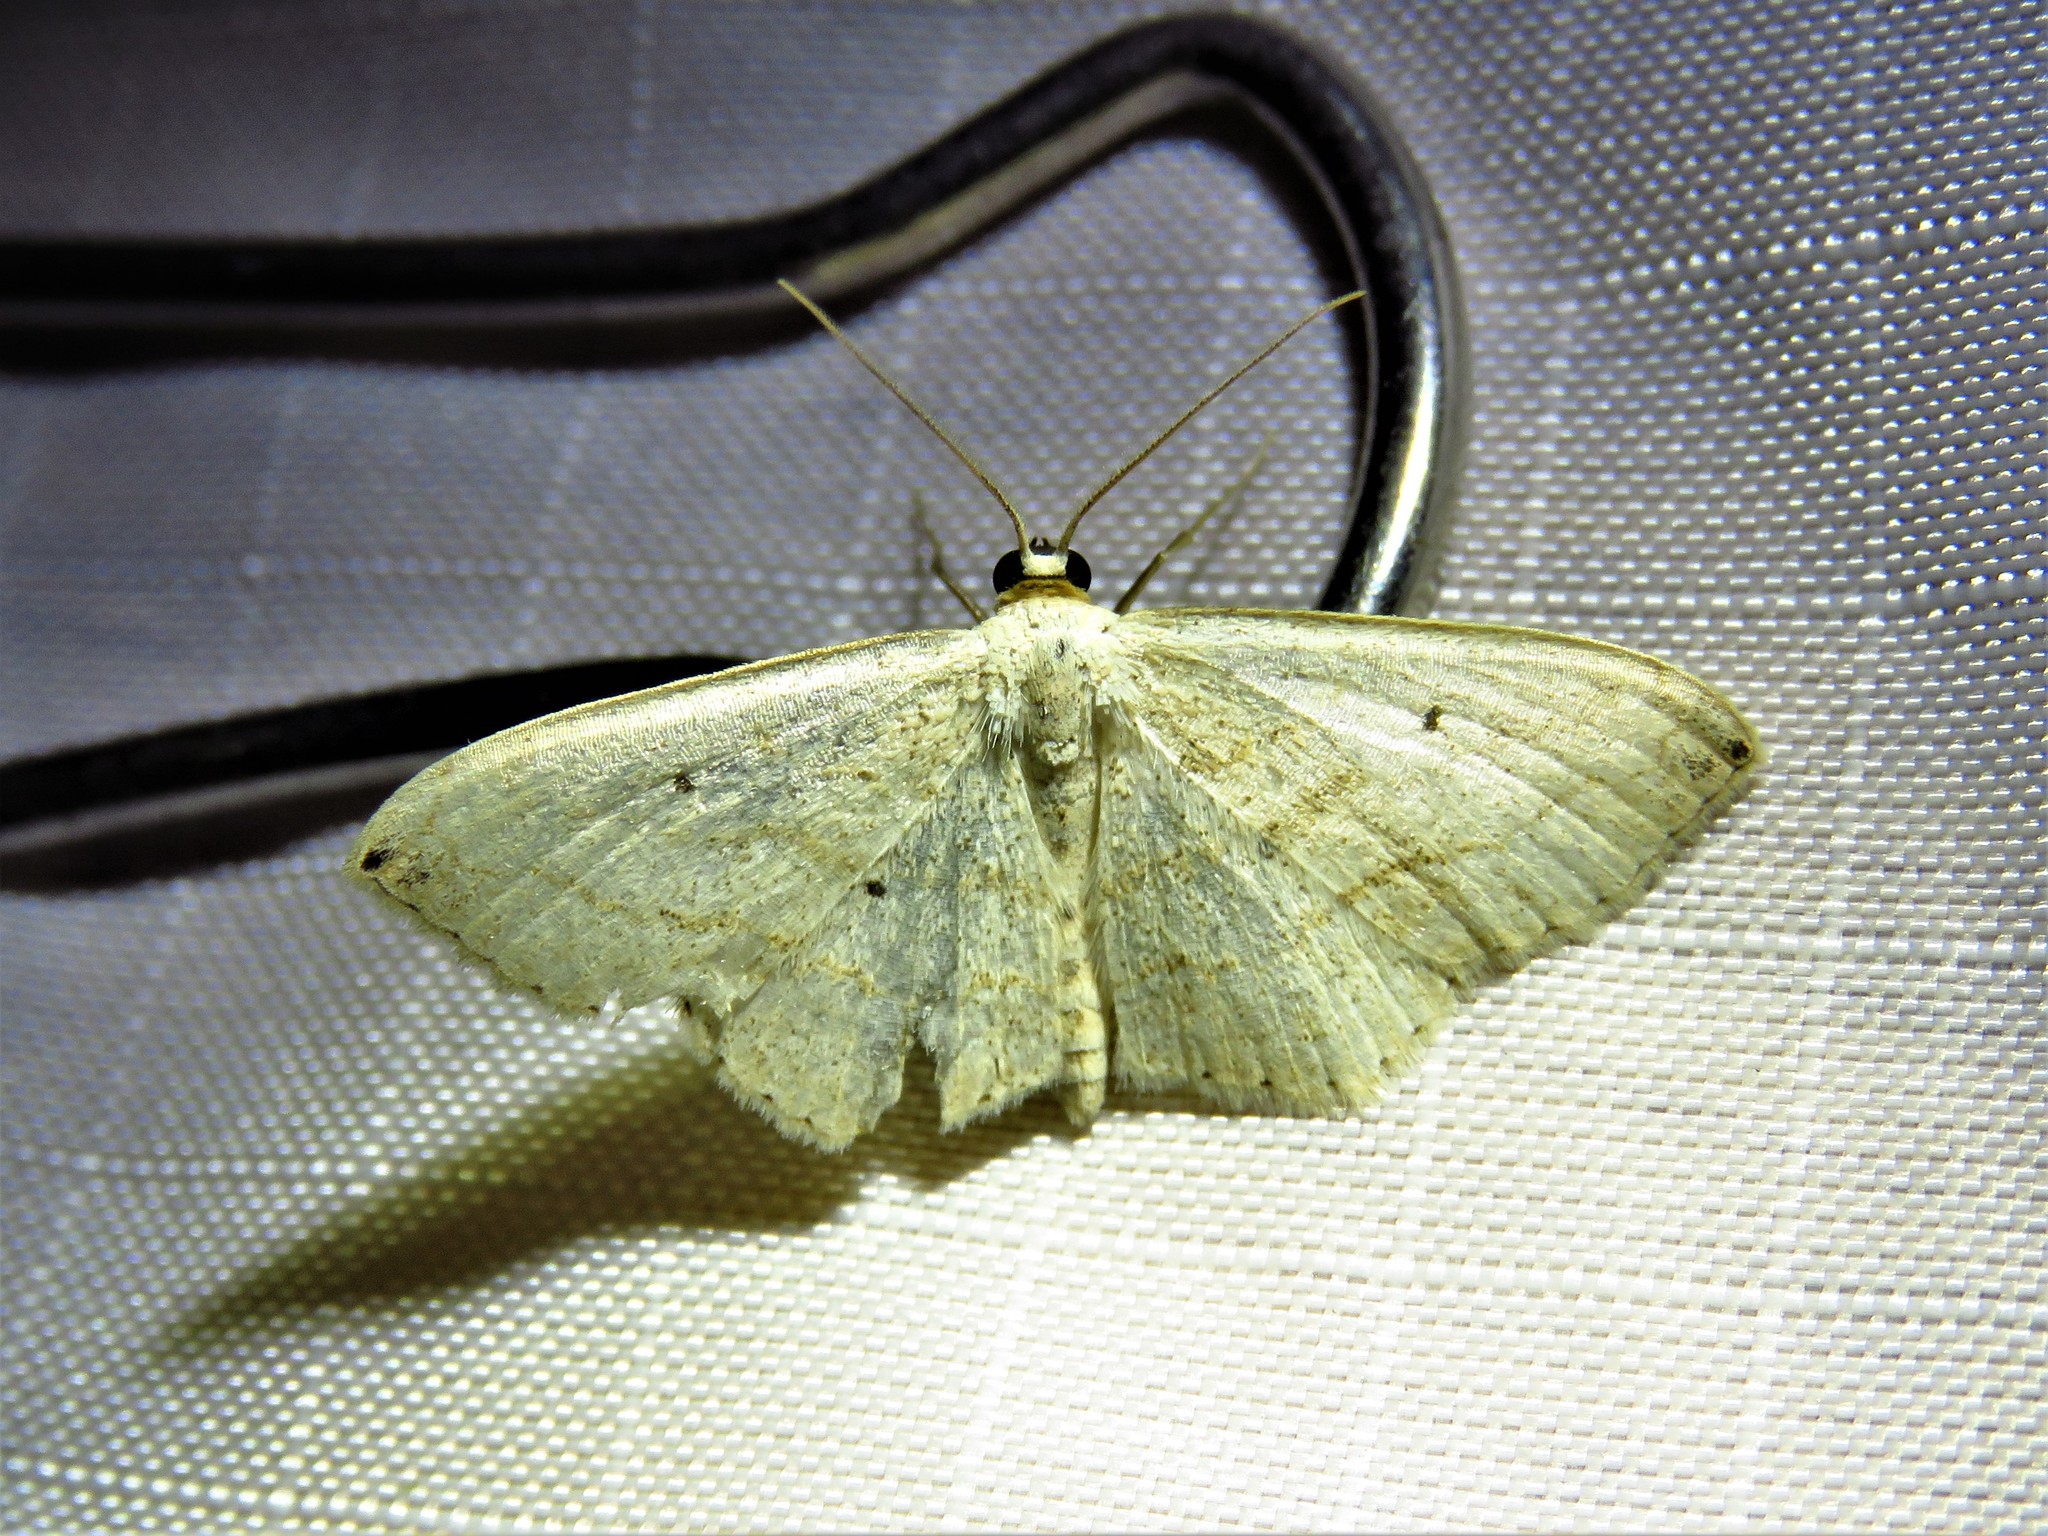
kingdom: Animalia
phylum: Arthropoda
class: Insecta
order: Lepidoptera
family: Geometridae
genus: Scopula
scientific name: Scopula umbilicata
